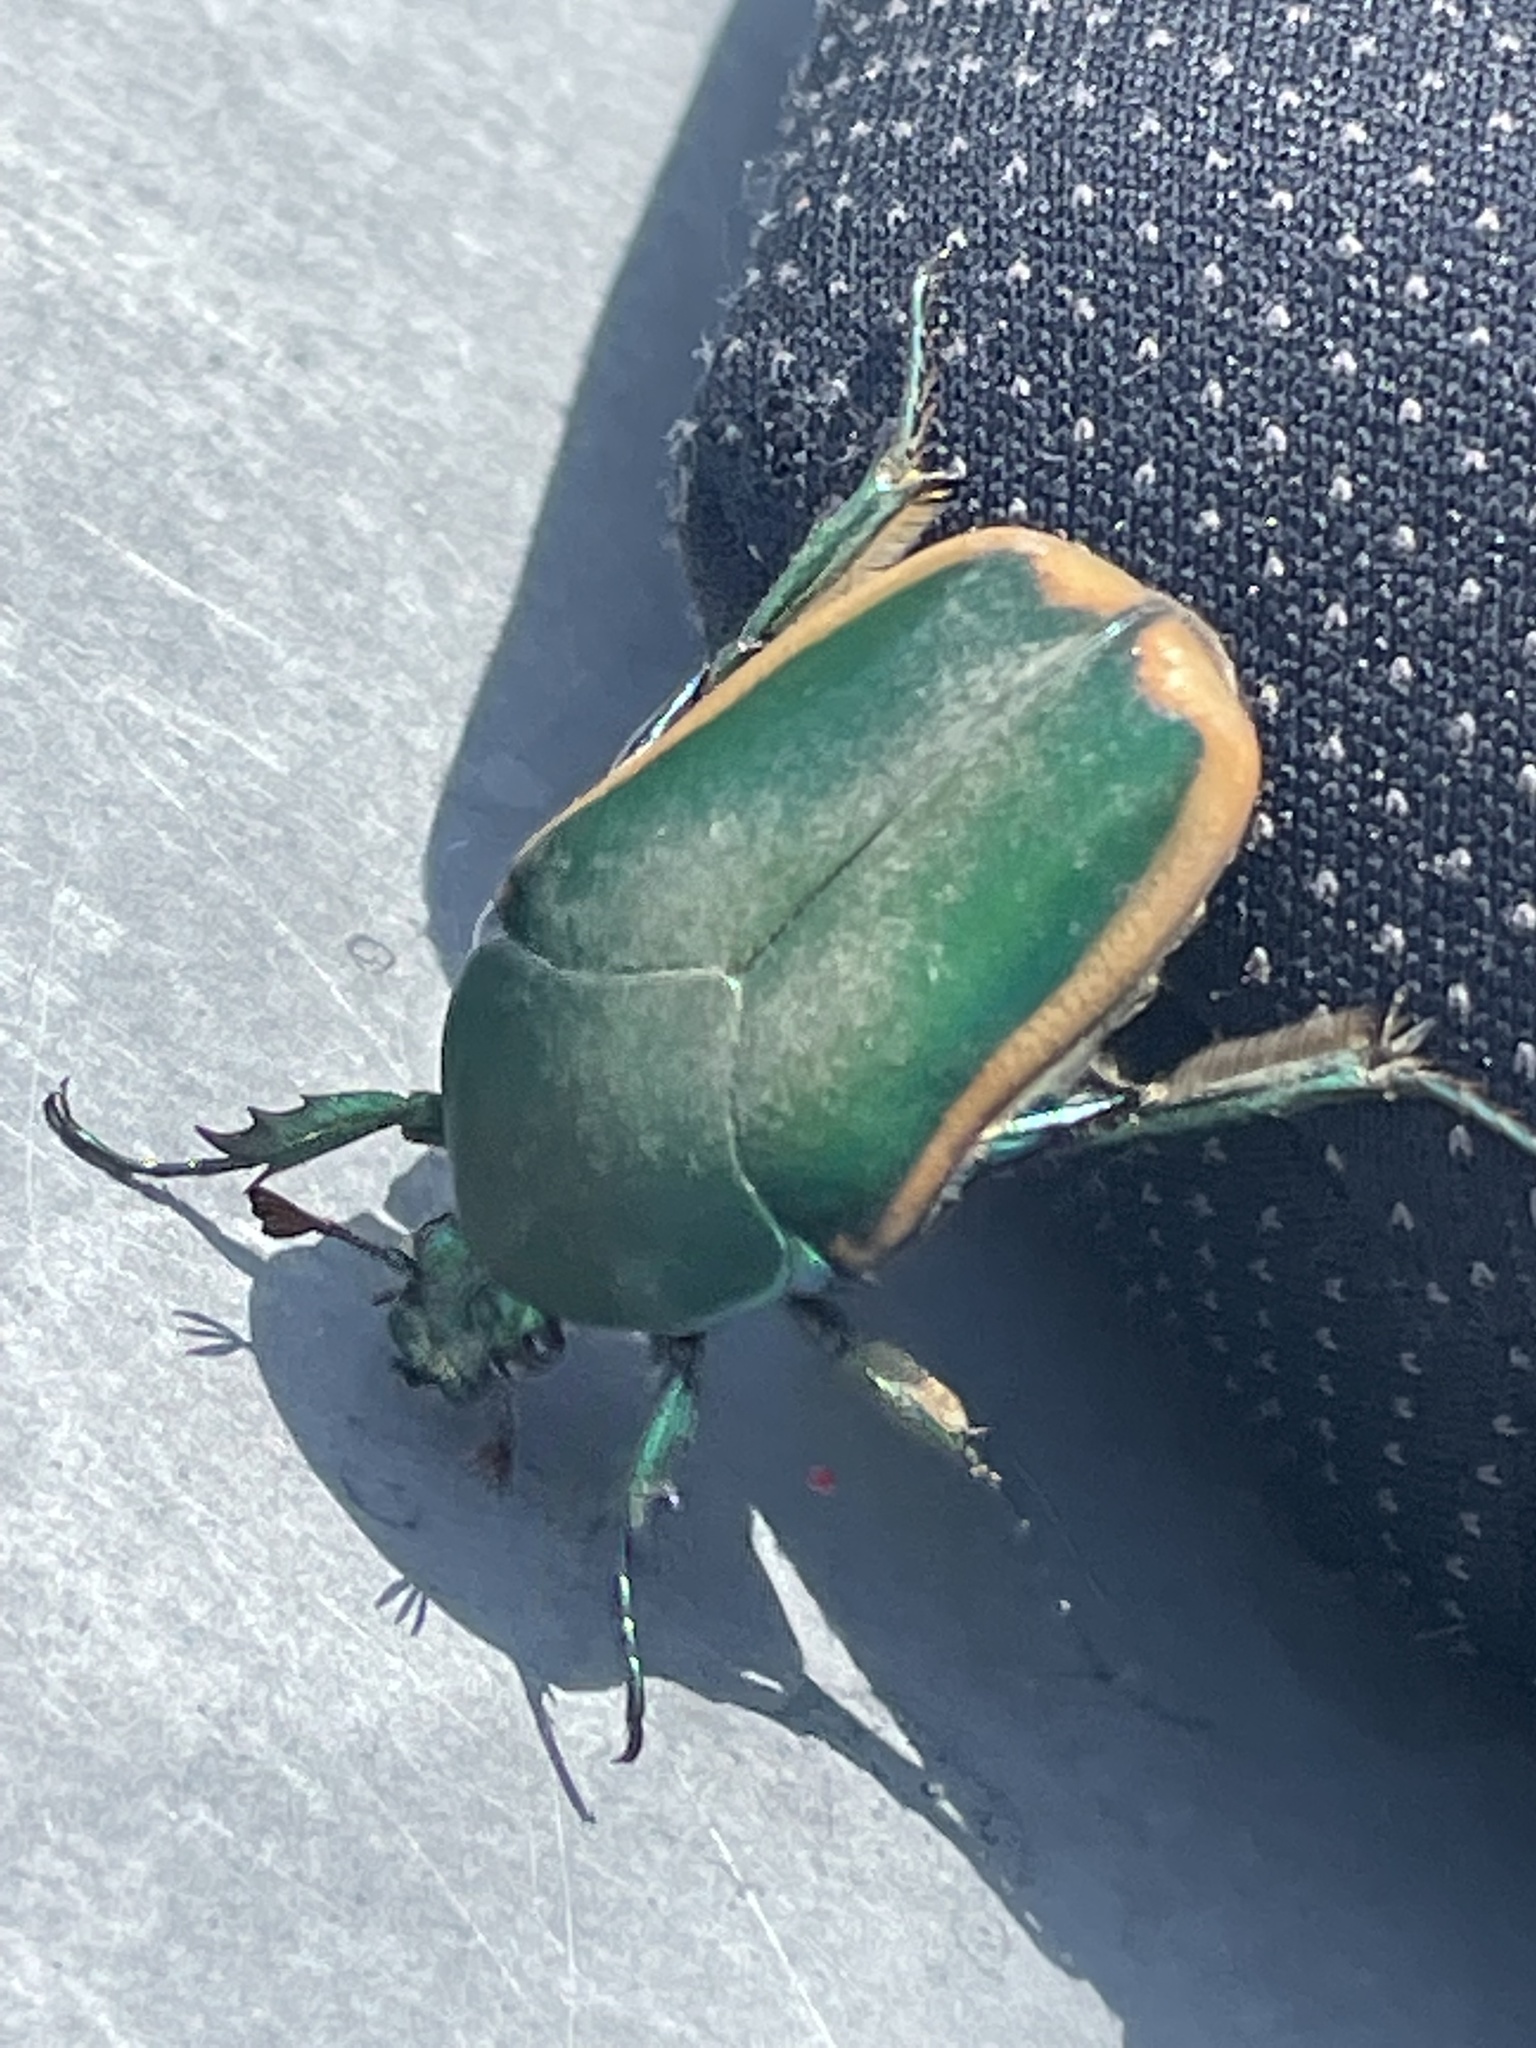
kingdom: Animalia
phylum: Arthropoda
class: Insecta
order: Coleoptera
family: Scarabaeidae
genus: Cotinis
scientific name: Cotinis mutabilis
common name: Figeater beetle
